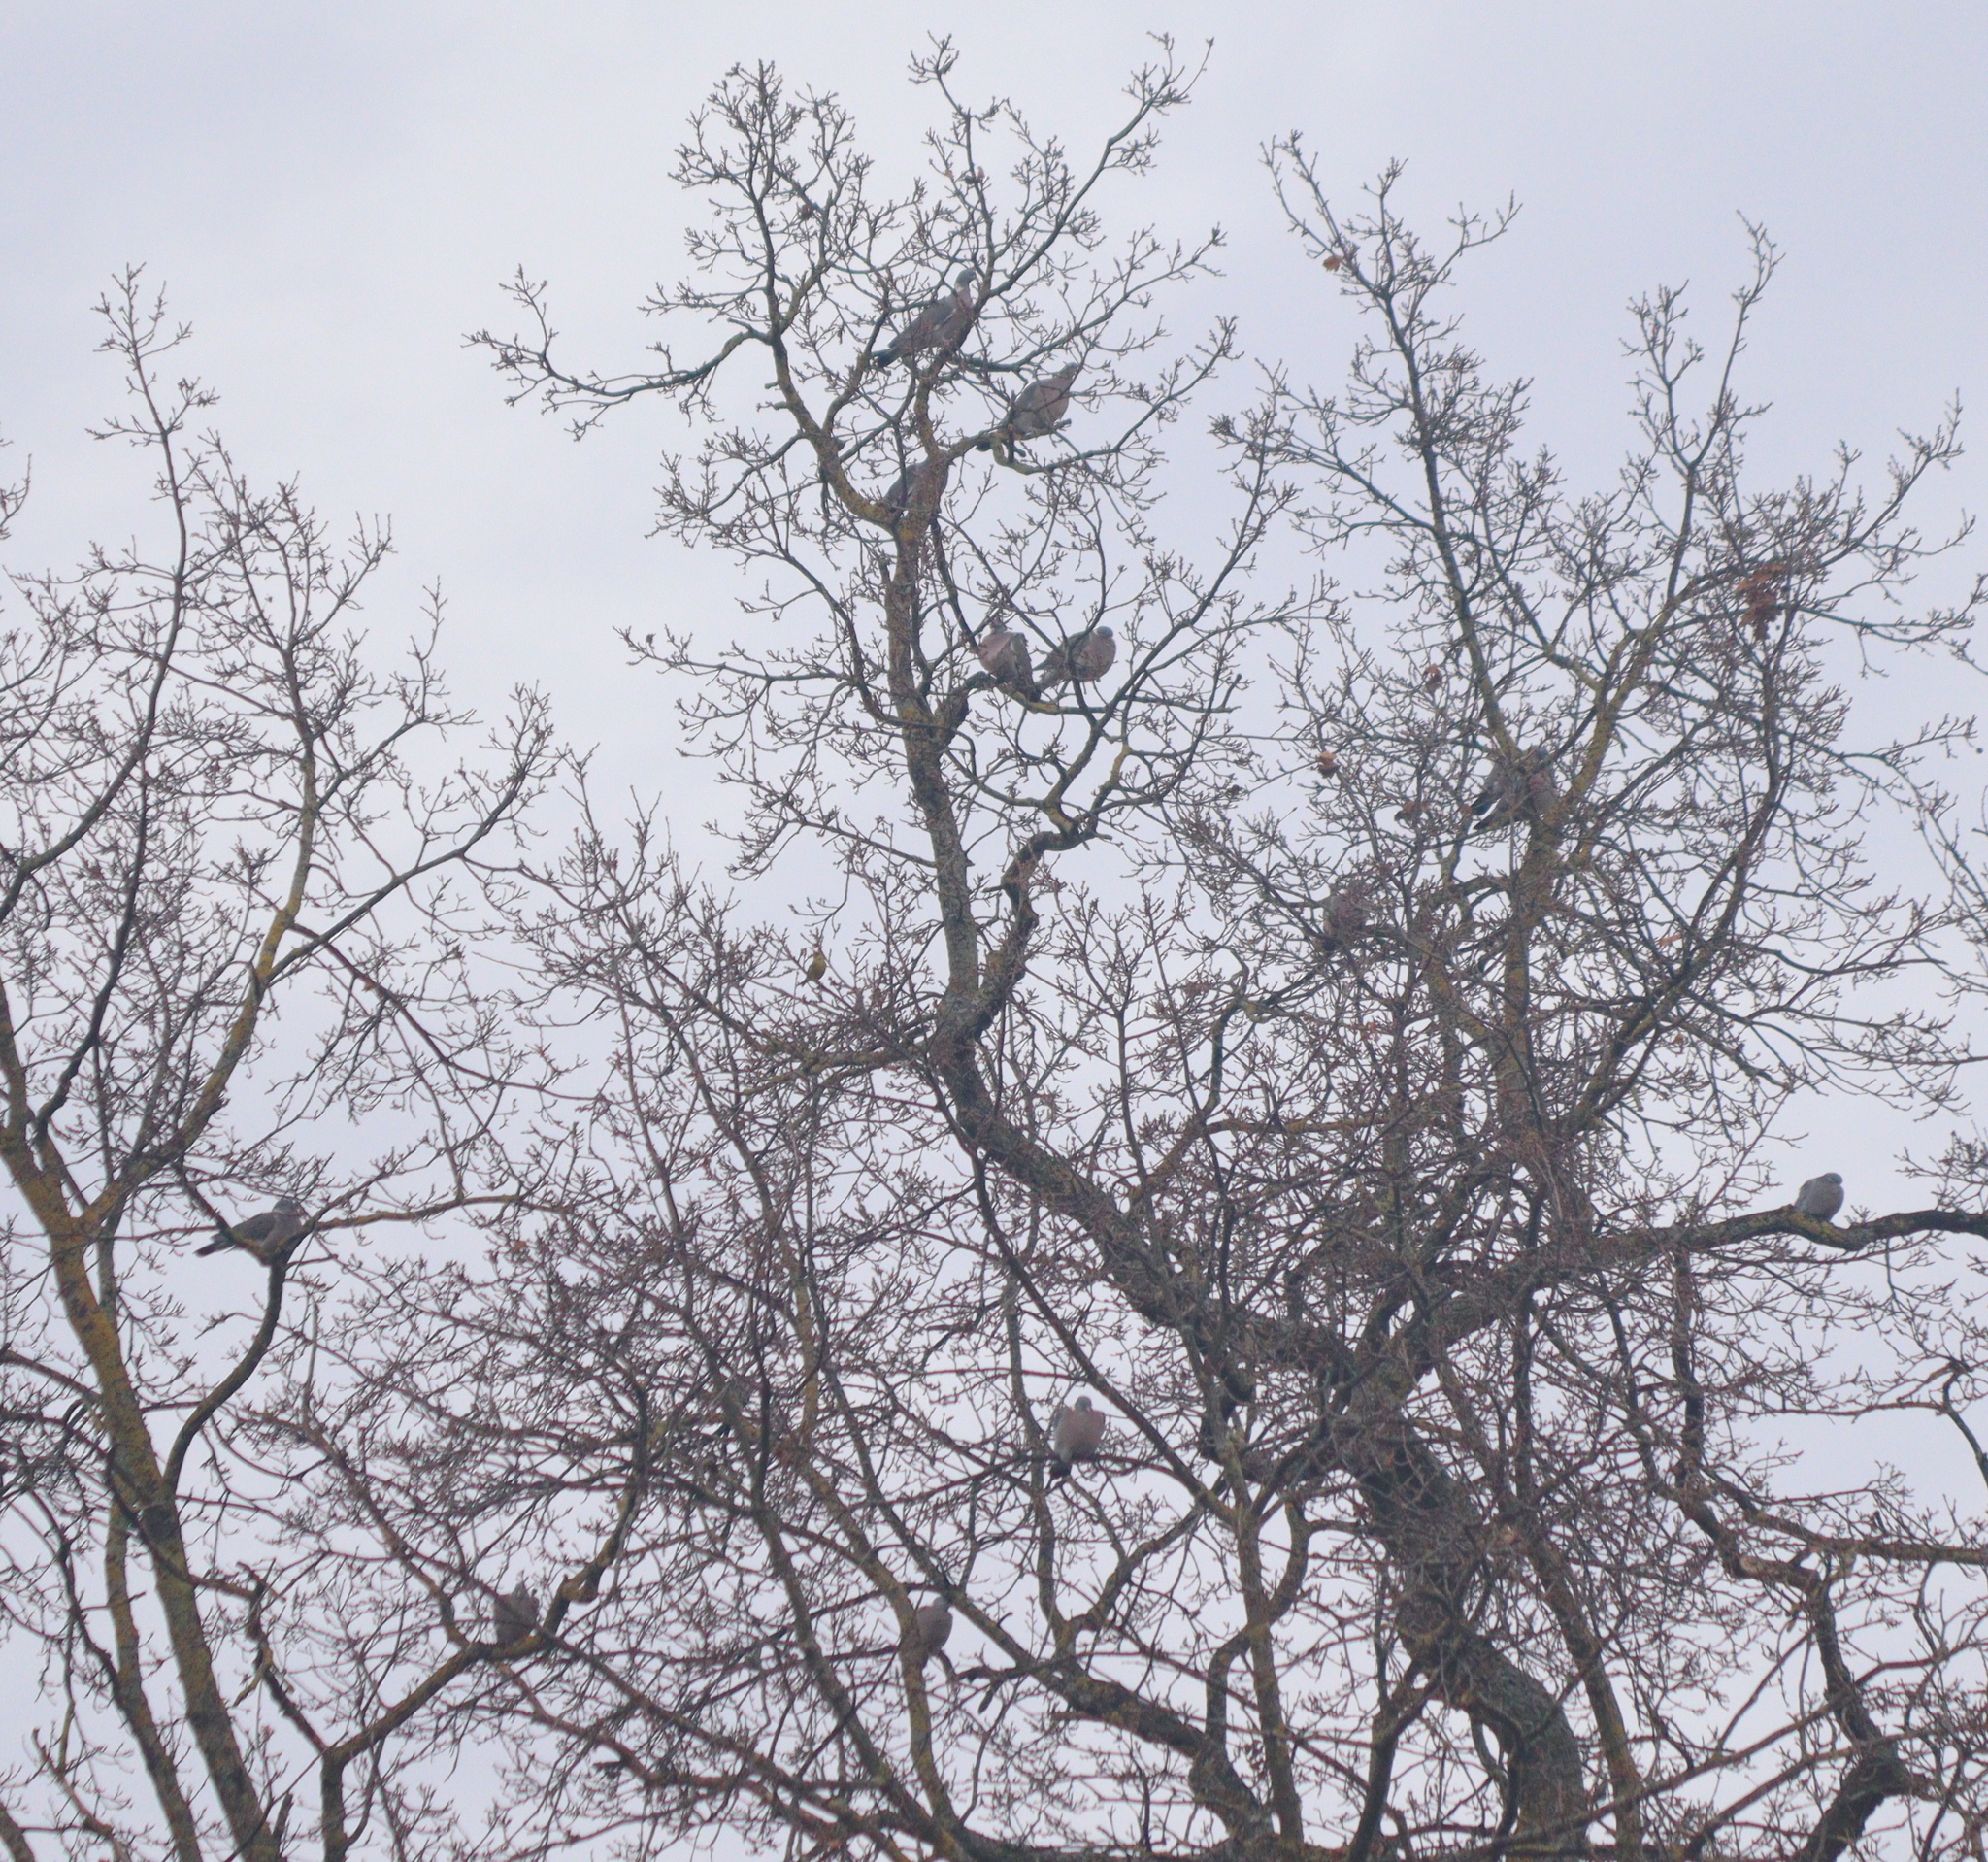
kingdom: Animalia
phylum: Chordata
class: Aves
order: Columbiformes
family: Columbidae
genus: Columba
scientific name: Columba palumbus
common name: Common wood pigeon
